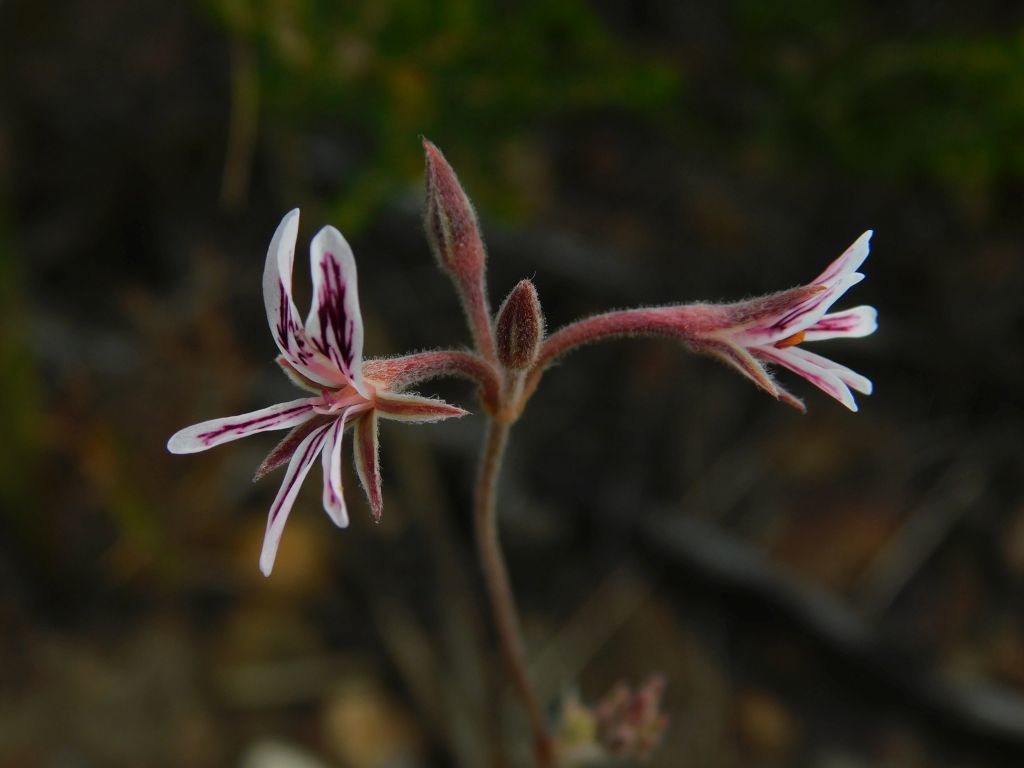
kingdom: Plantae
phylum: Tracheophyta
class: Magnoliopsida
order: Geraniales
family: Geraniaceae
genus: Pelargonium
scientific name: Pelargonium proliferum
